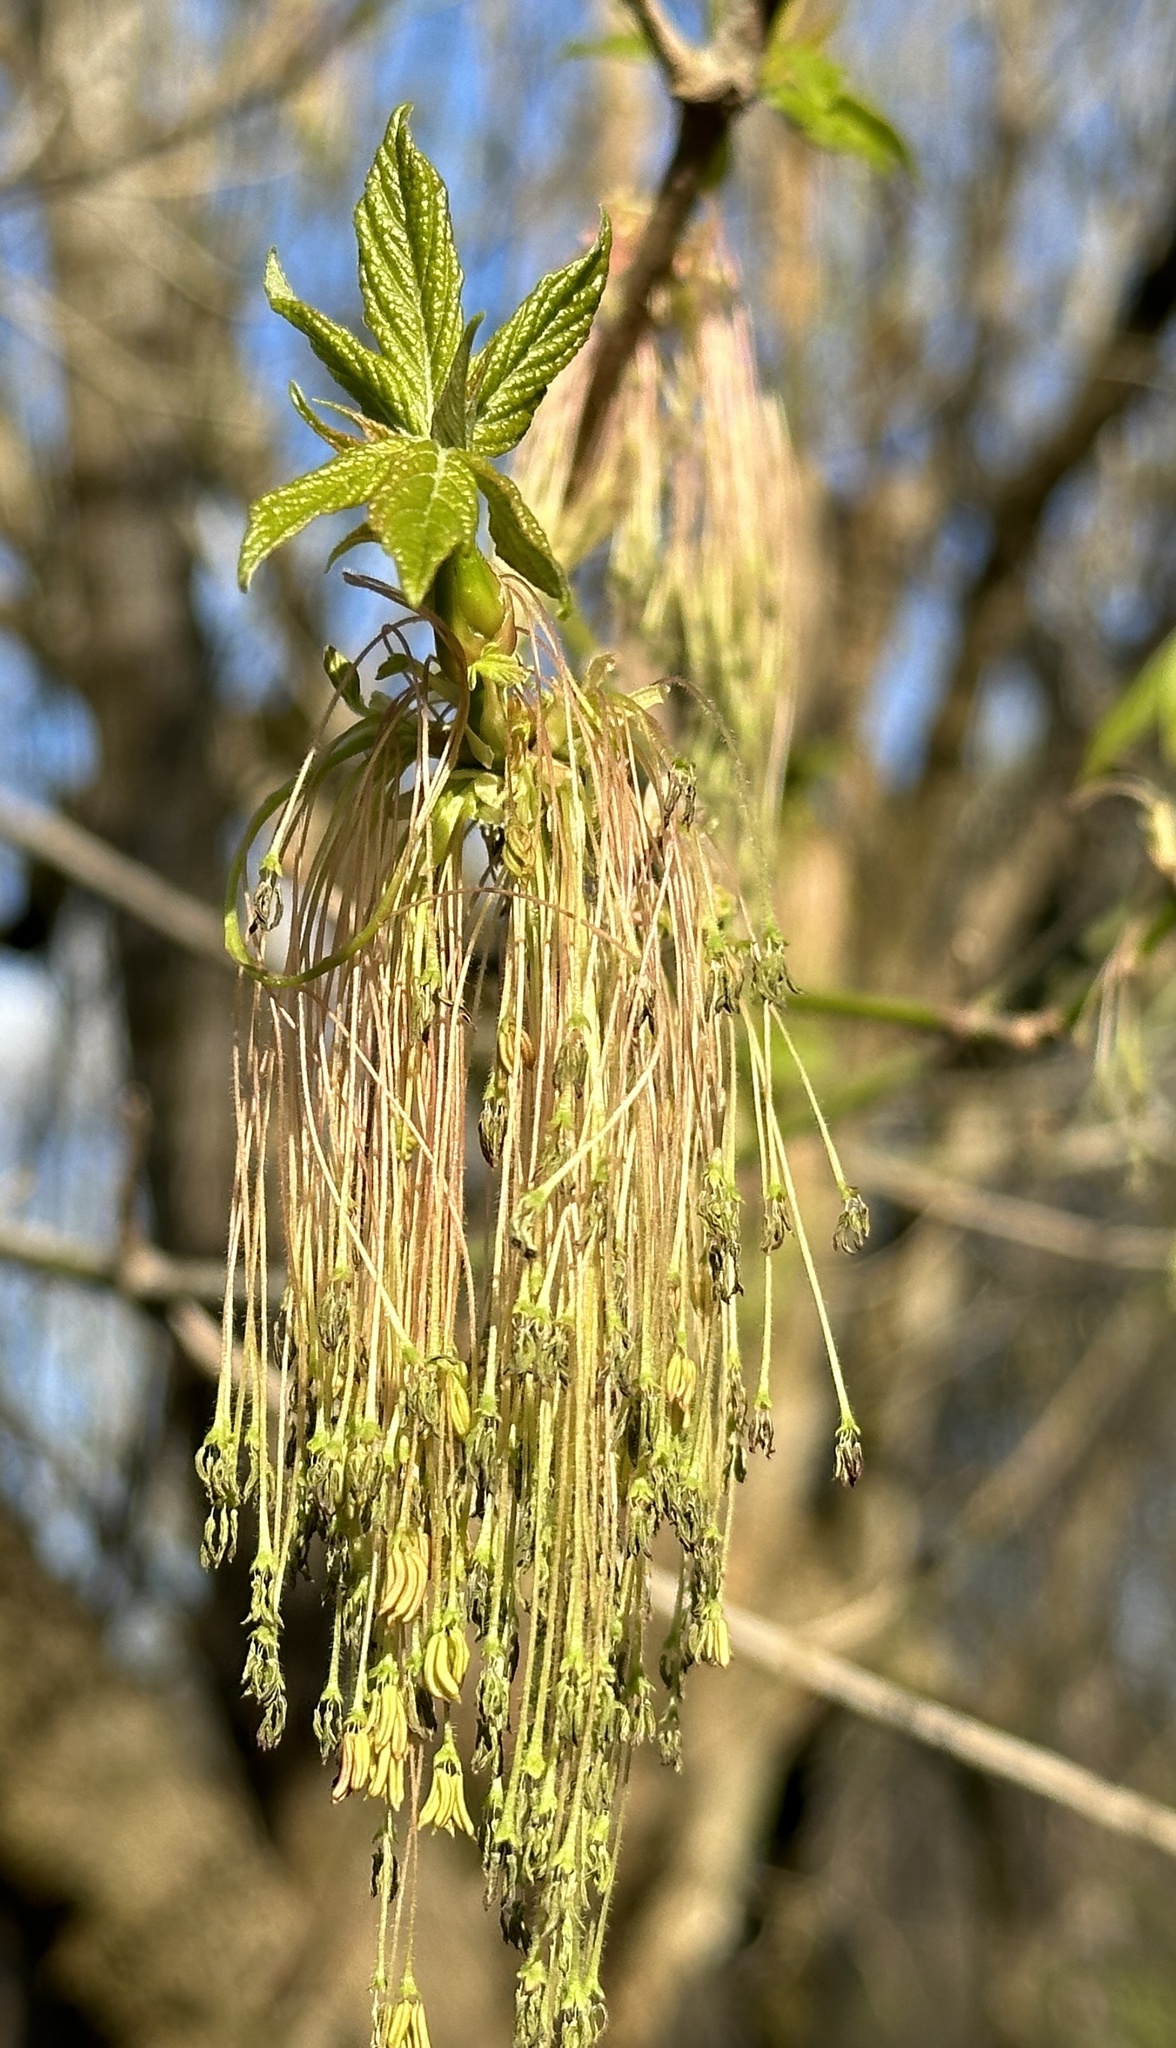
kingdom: Plantae
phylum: Tracheophyta
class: Magnoliopsida
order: Sapindales
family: Sapindaceae
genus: Acer
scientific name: Acer negundo
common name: Ashleaf maple
